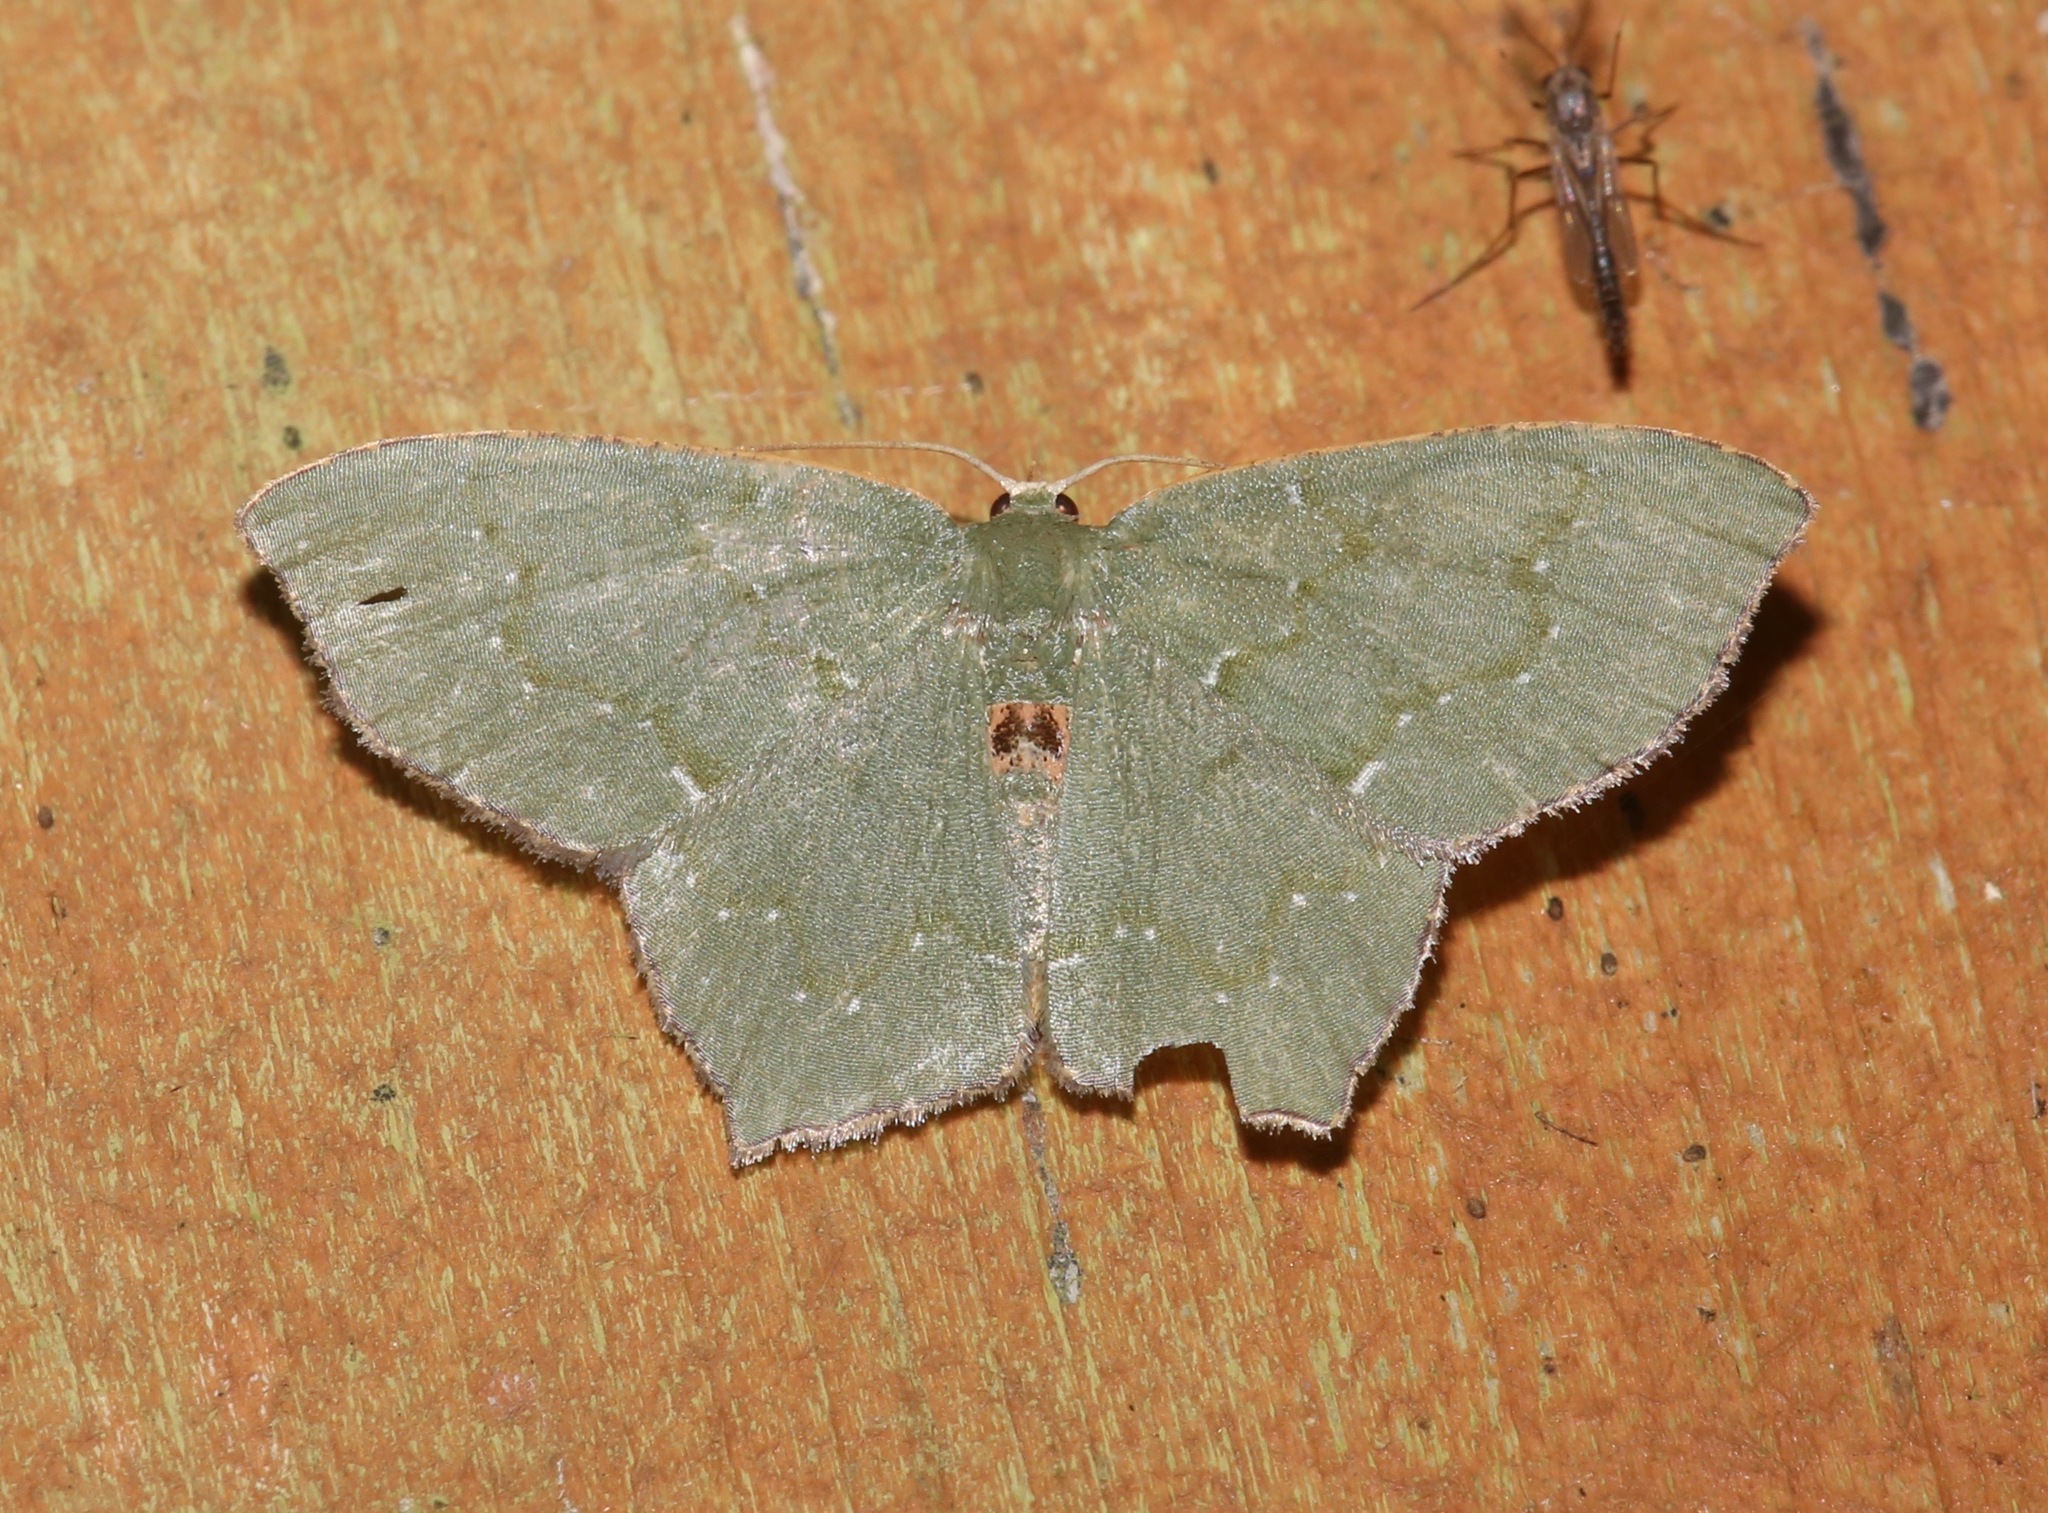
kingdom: Animalia
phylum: Arthropoda
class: Insecta
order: Lepidoptera
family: Geometridae
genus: Chloropteryx
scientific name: Chloropteryx tepperaria
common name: Angle winged emerald moth
